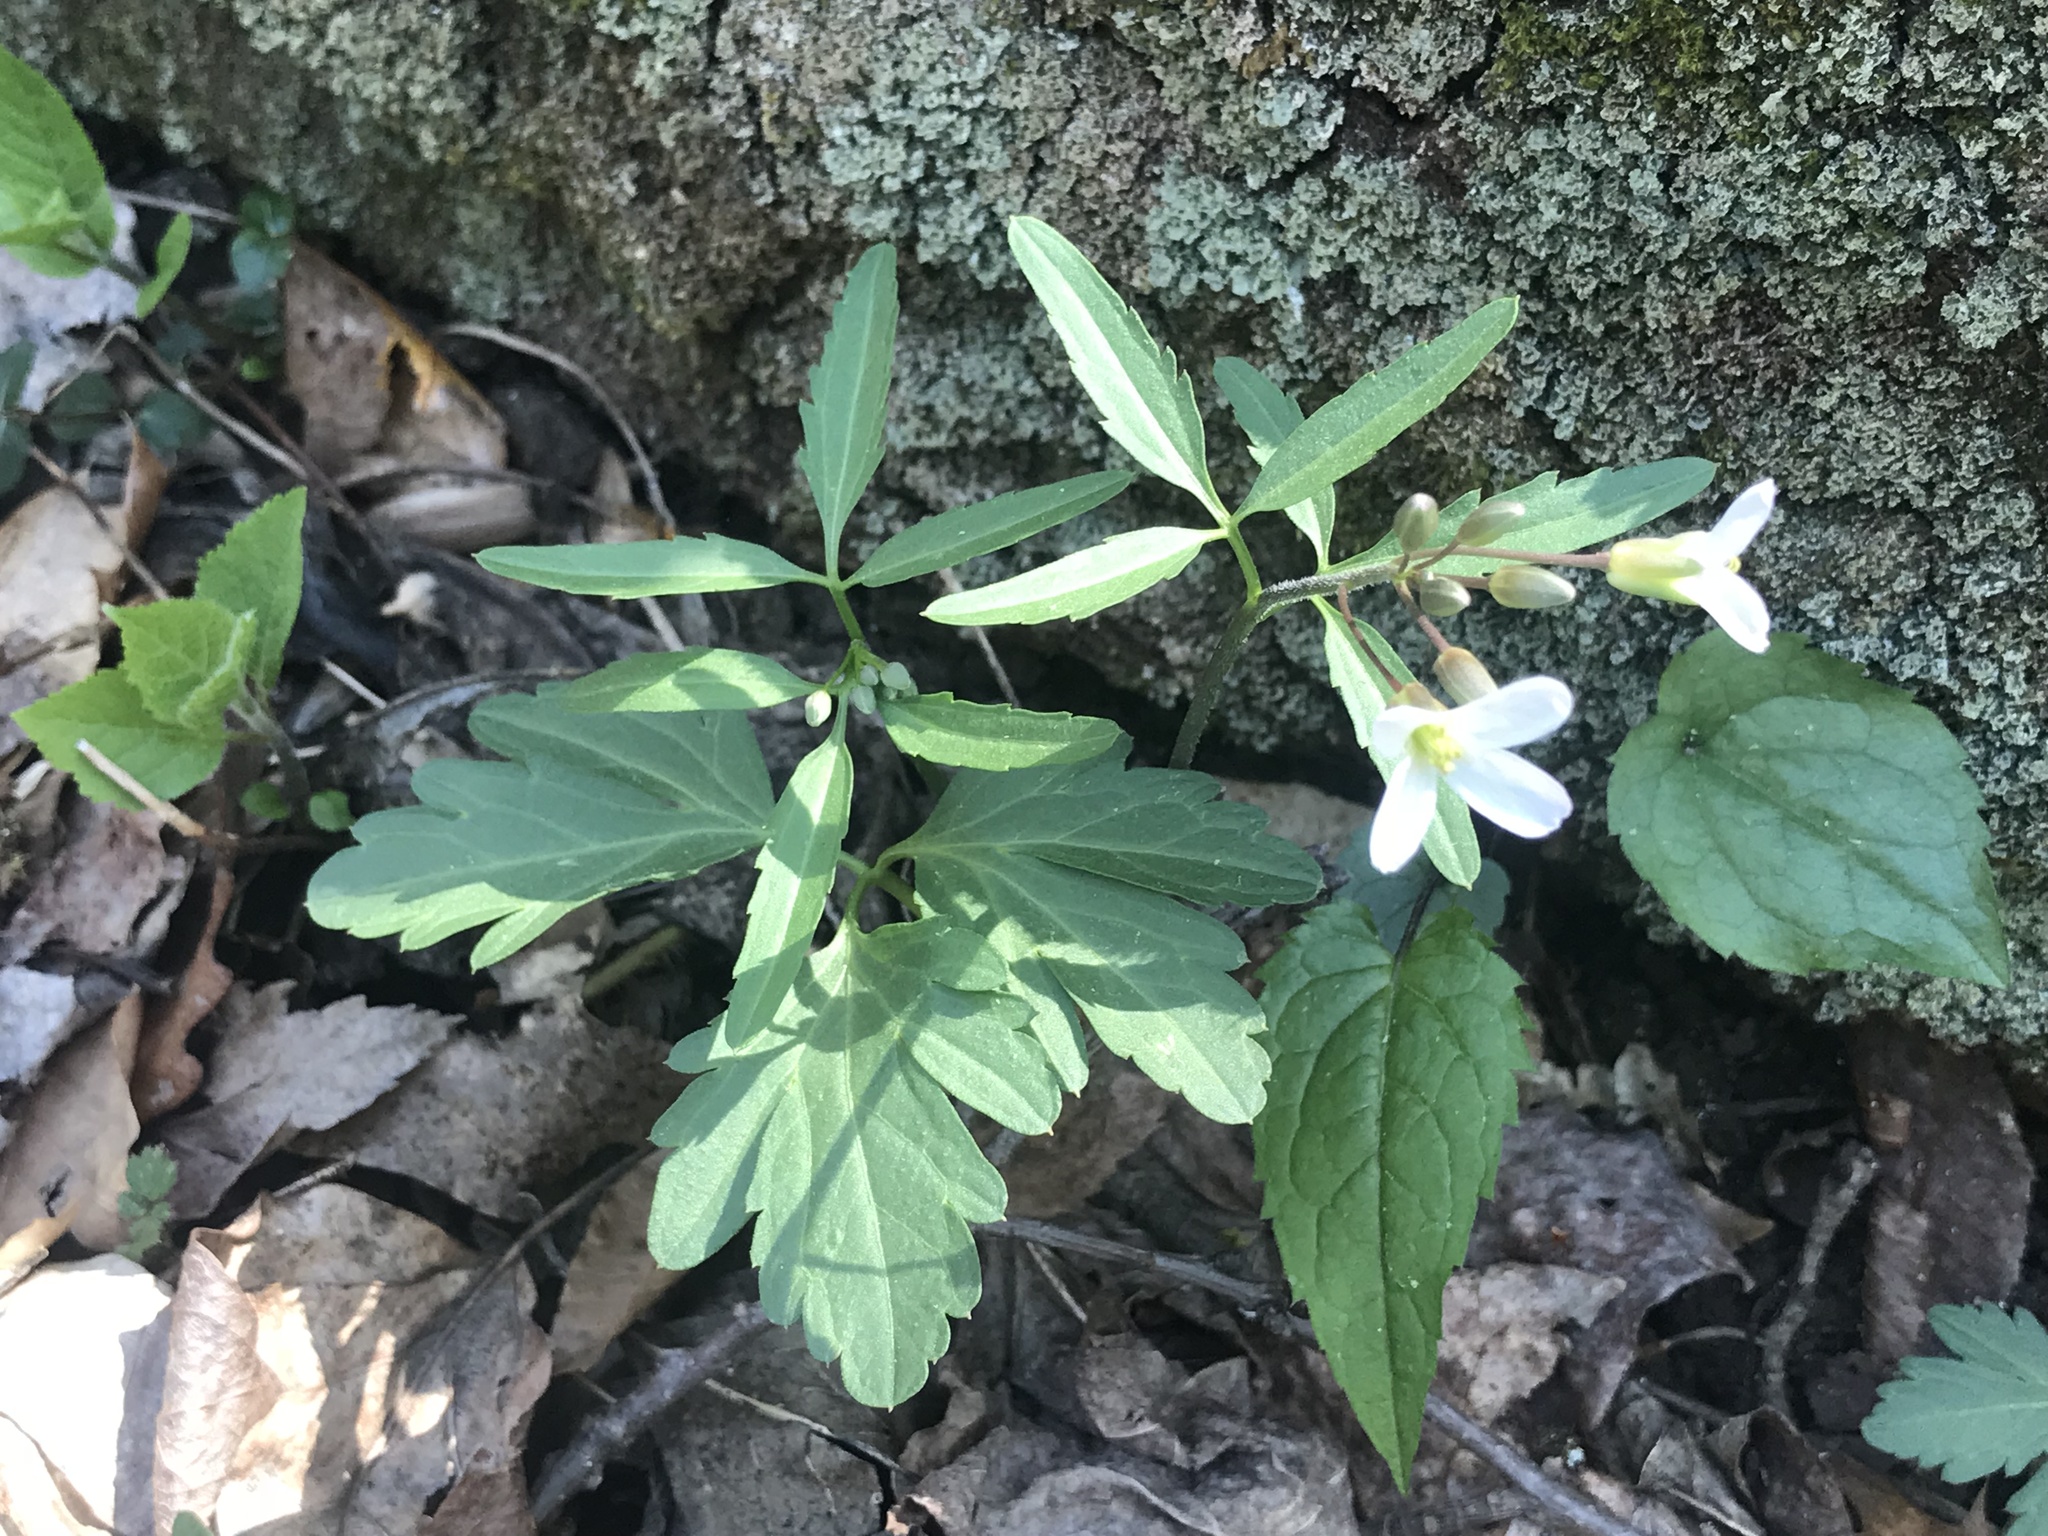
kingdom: Plantae
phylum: Tracheophyta
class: Magnoliopsida
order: Brassicales
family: Brassicaceae
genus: Cardamine
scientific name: Cardamine concatenata
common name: Cut-leaf toothcup
